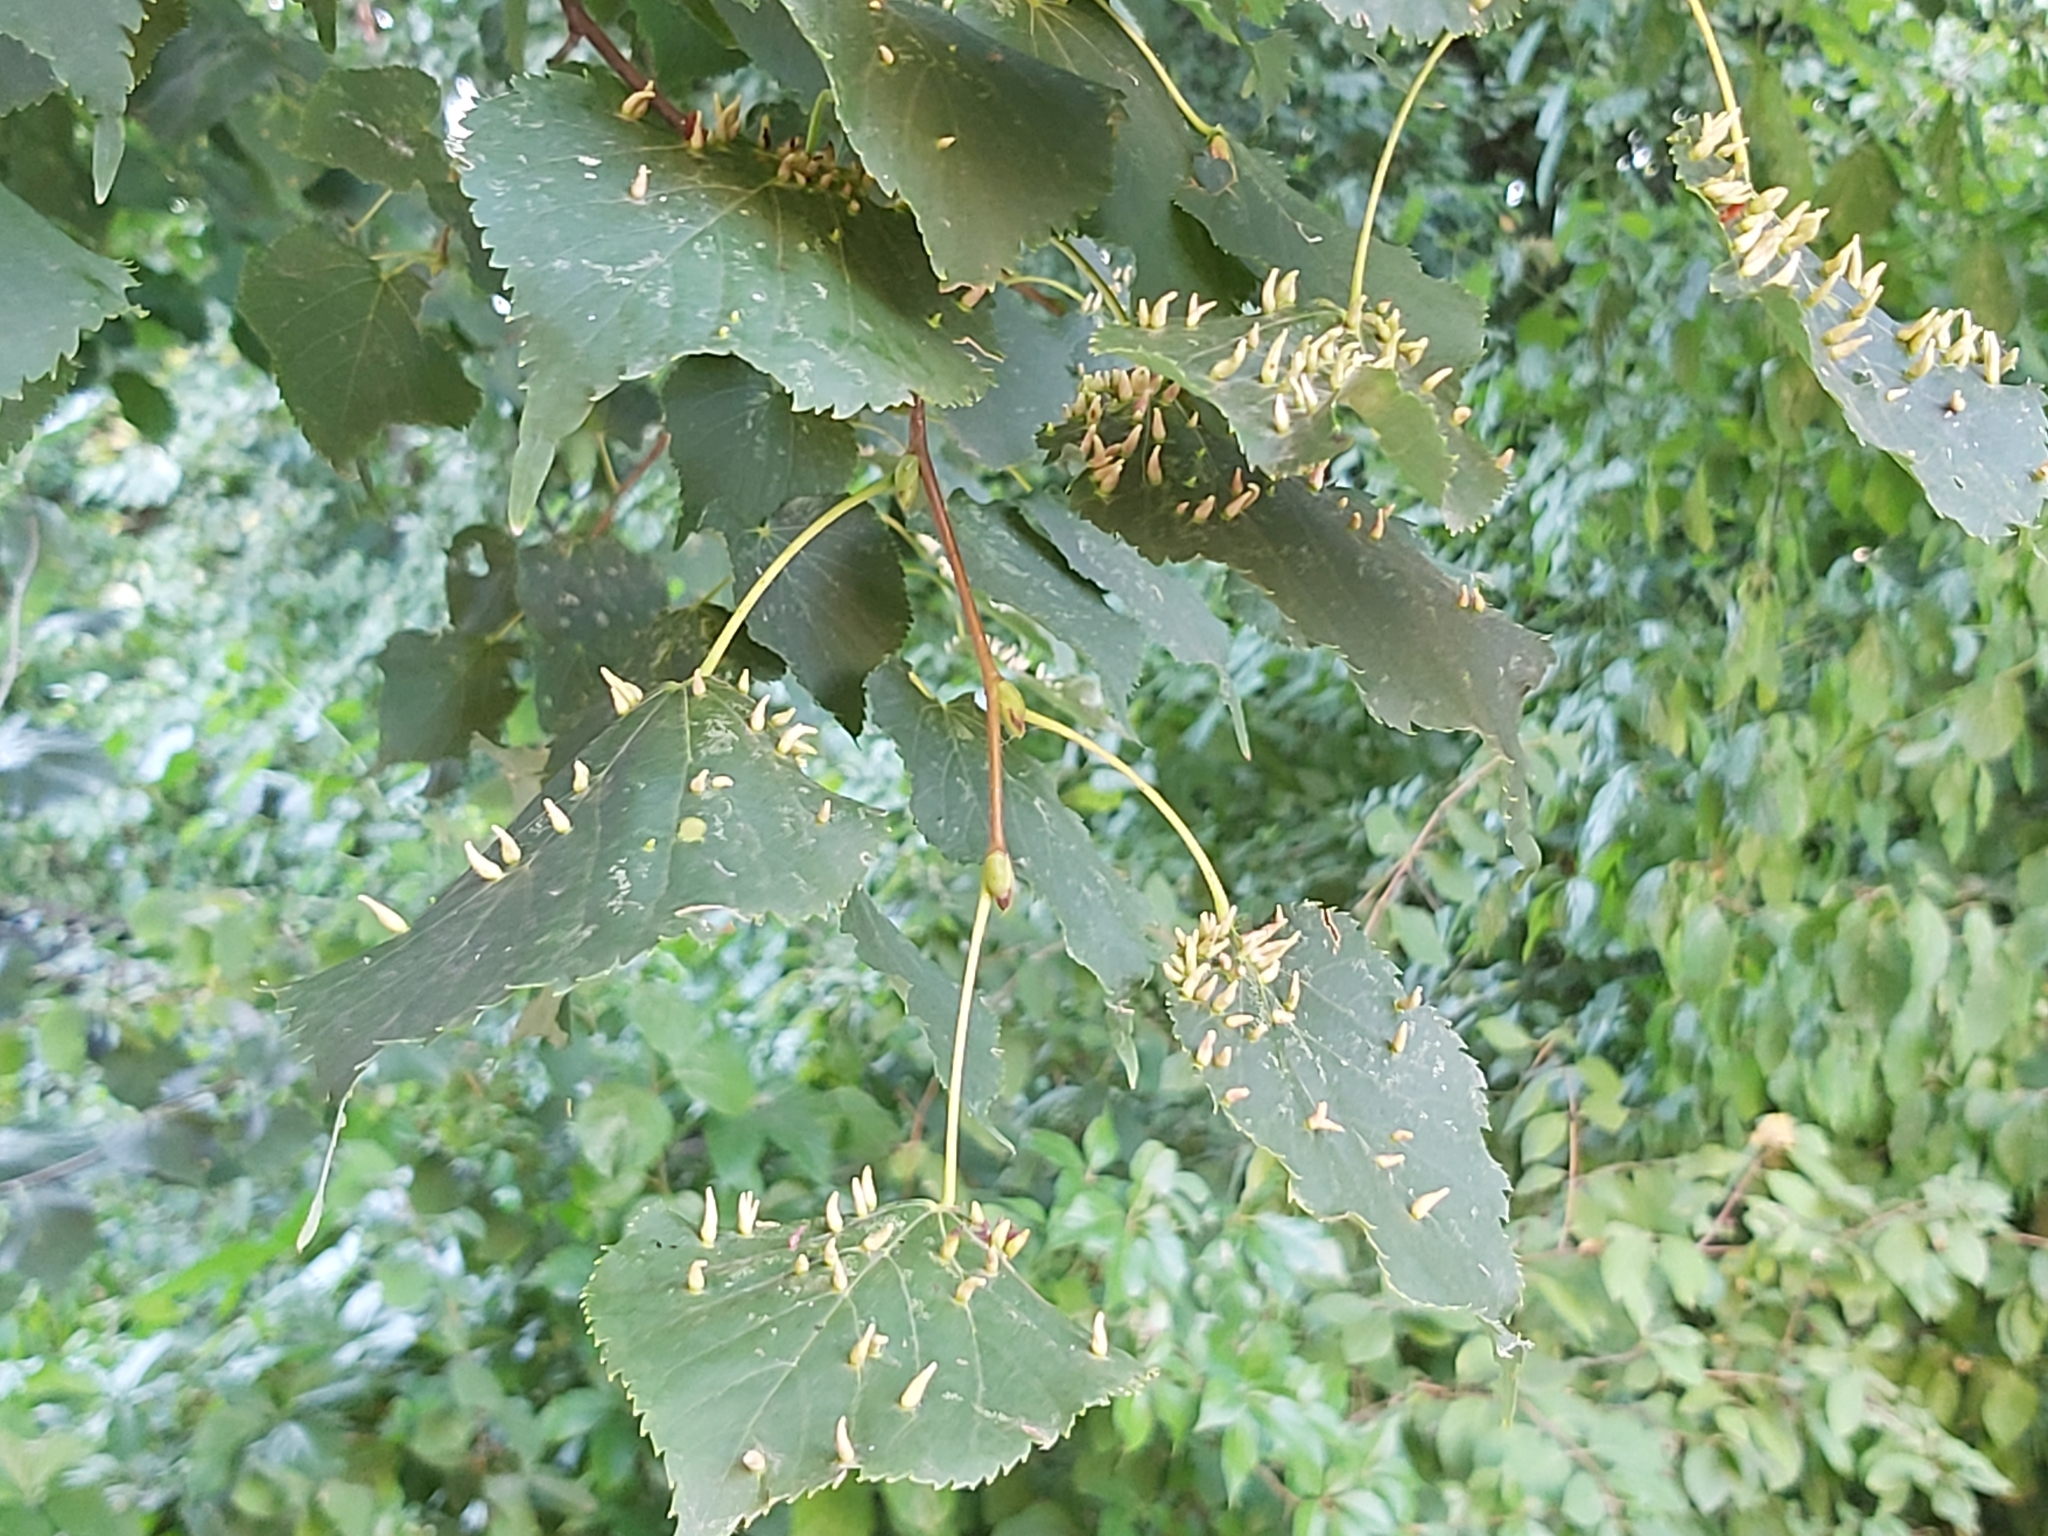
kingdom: Animalia
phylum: Arthropoda
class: Arachnida
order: Trombidiformes
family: Eriophyidae
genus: Eriophyes
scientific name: Eriophyes tiliae
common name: Red nail gall mite
